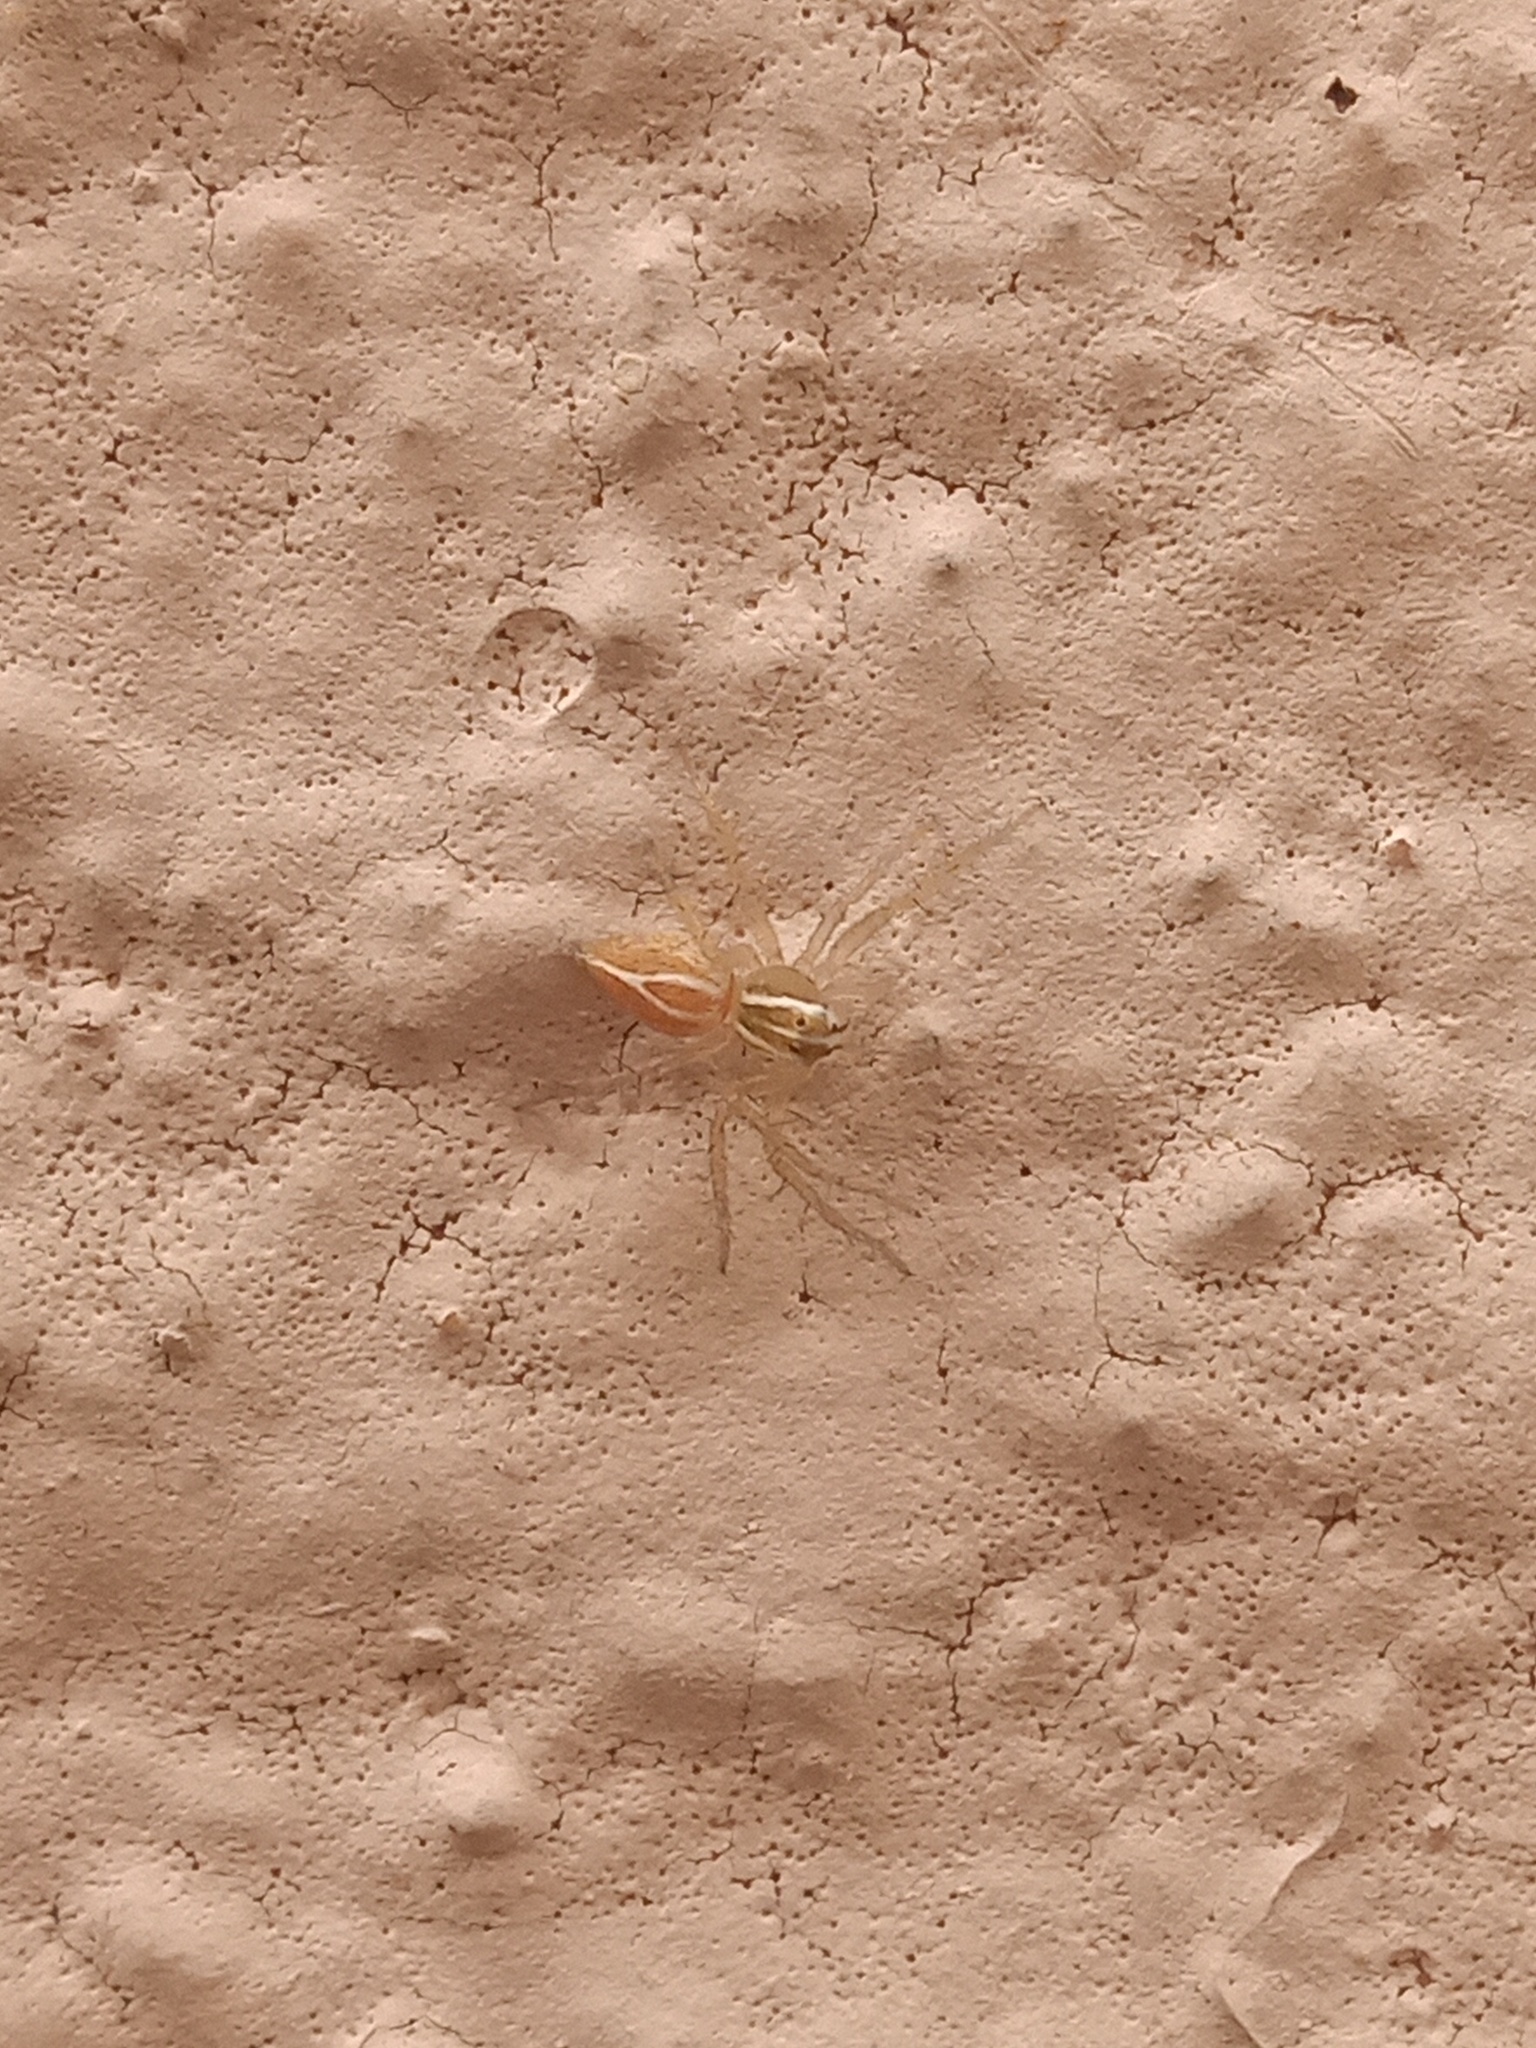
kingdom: Animalia
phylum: Arthropoda
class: Arachnida
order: Araneae
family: Oxyopidae
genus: Oxyopes
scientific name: Oxyopes salticus
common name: Lynx spiders
